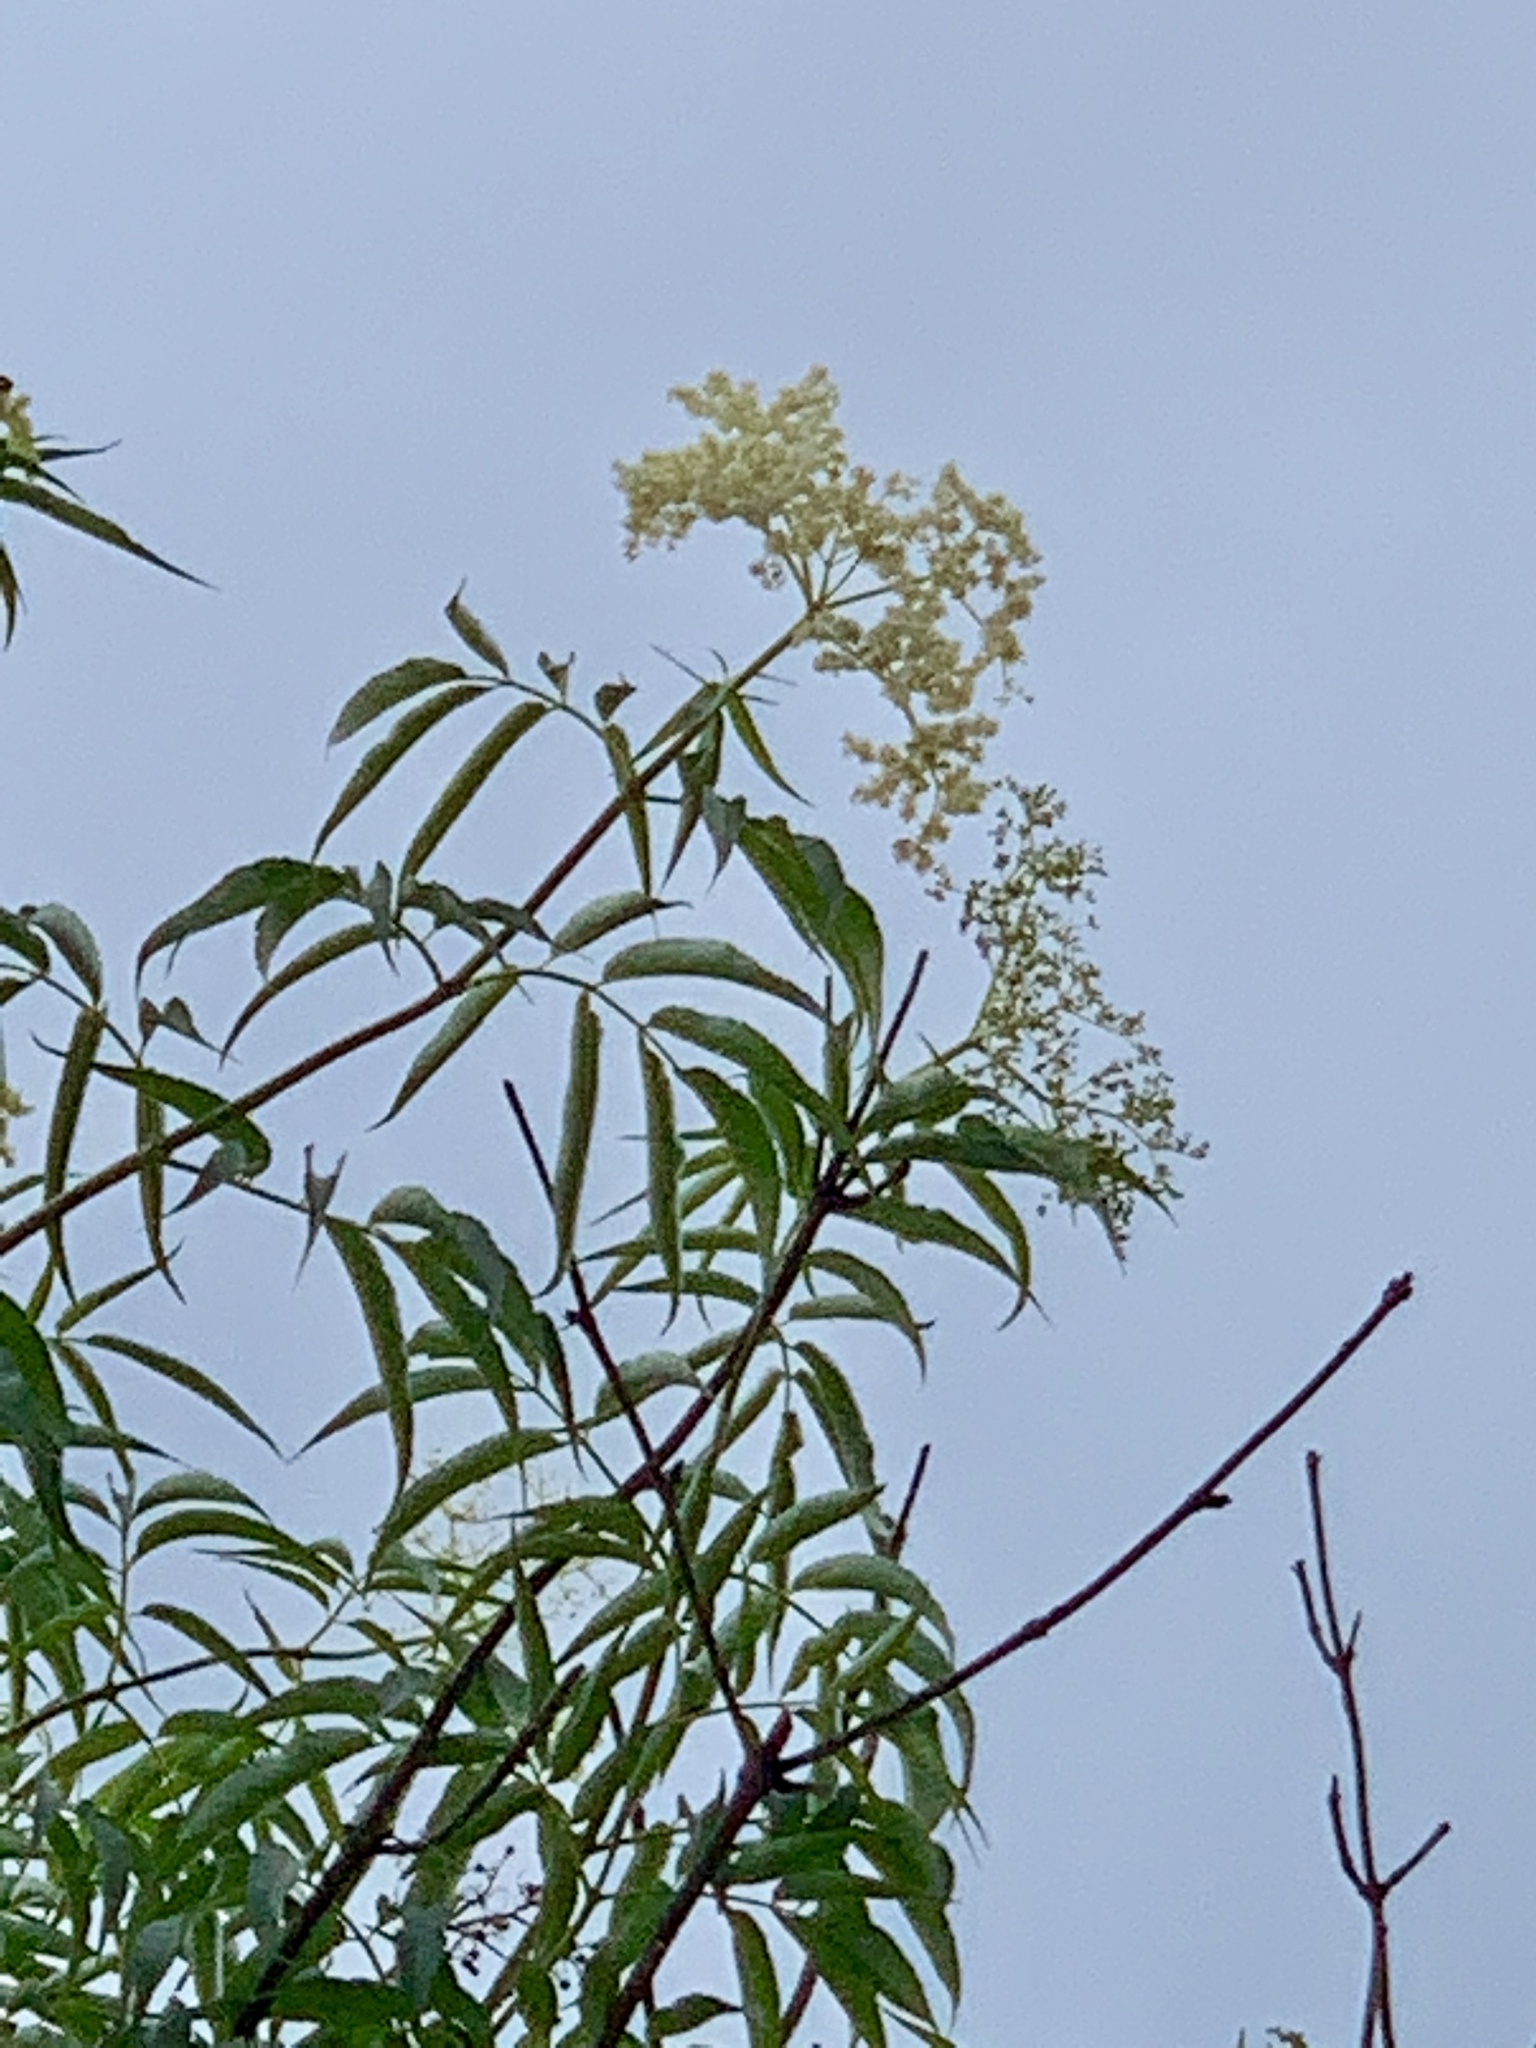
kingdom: Plantae
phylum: Tracheophyta
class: Magnoliopsida
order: Dipsacales
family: Viburnaceae
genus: Sambucus
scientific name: Sambucus cerulea
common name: Blue elder
